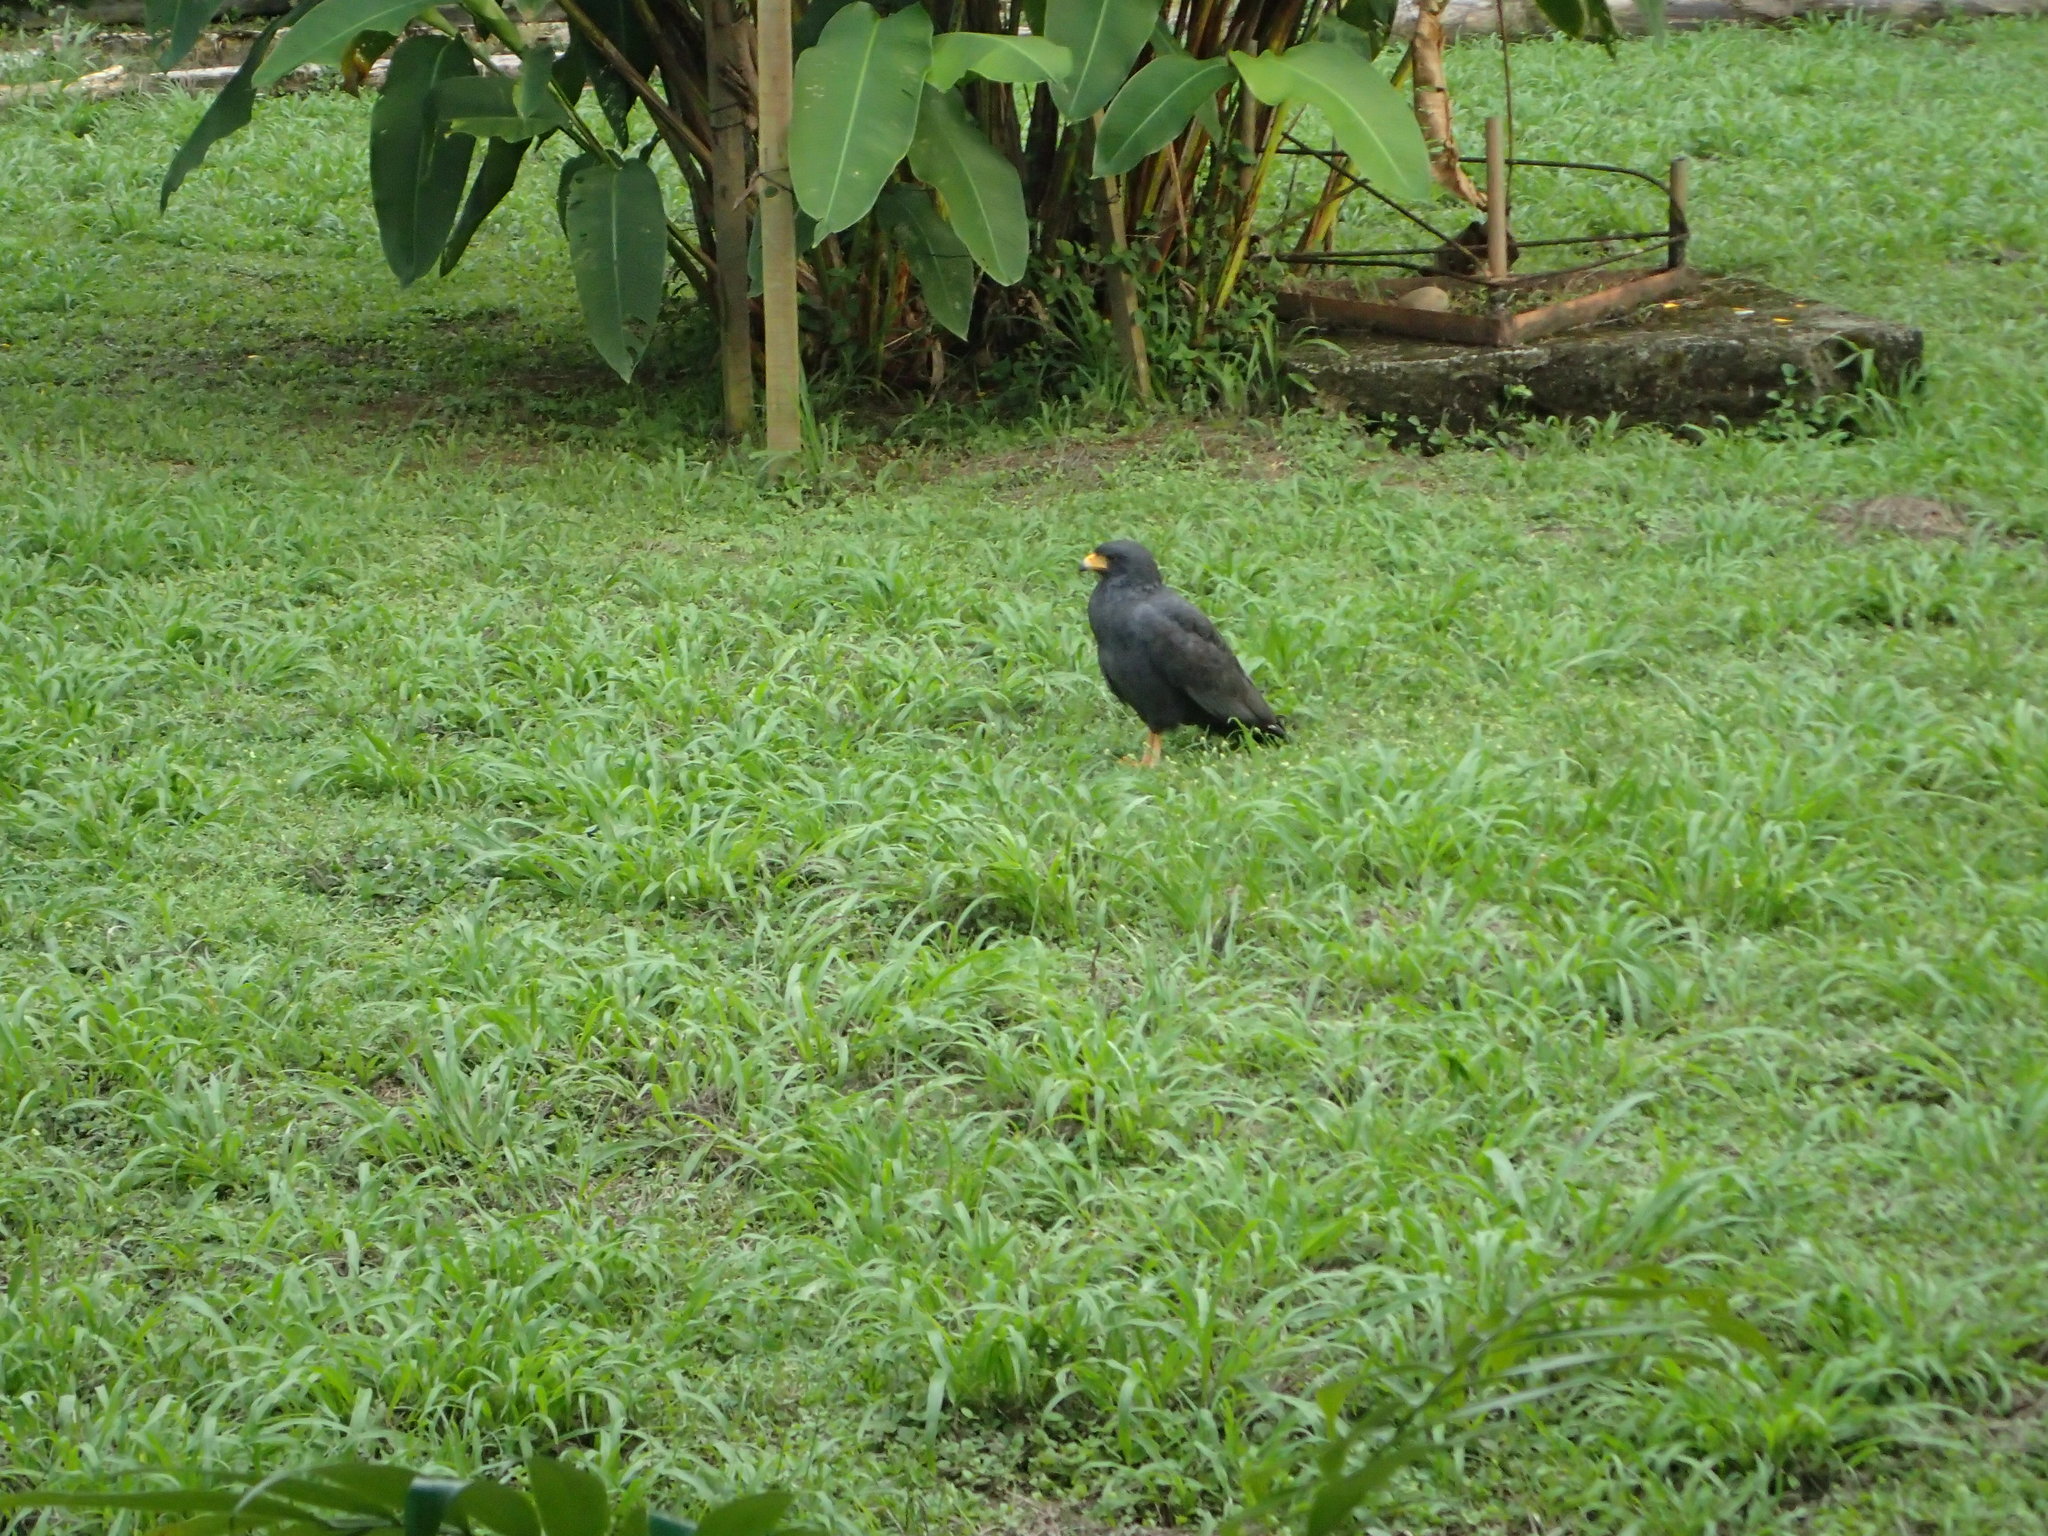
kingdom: Animalia
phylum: Chordata
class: Aves
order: Accipitriformes
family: Accipitridae
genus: Buteogallus
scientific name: Buteogallus anthracinus
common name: Common black hawk
